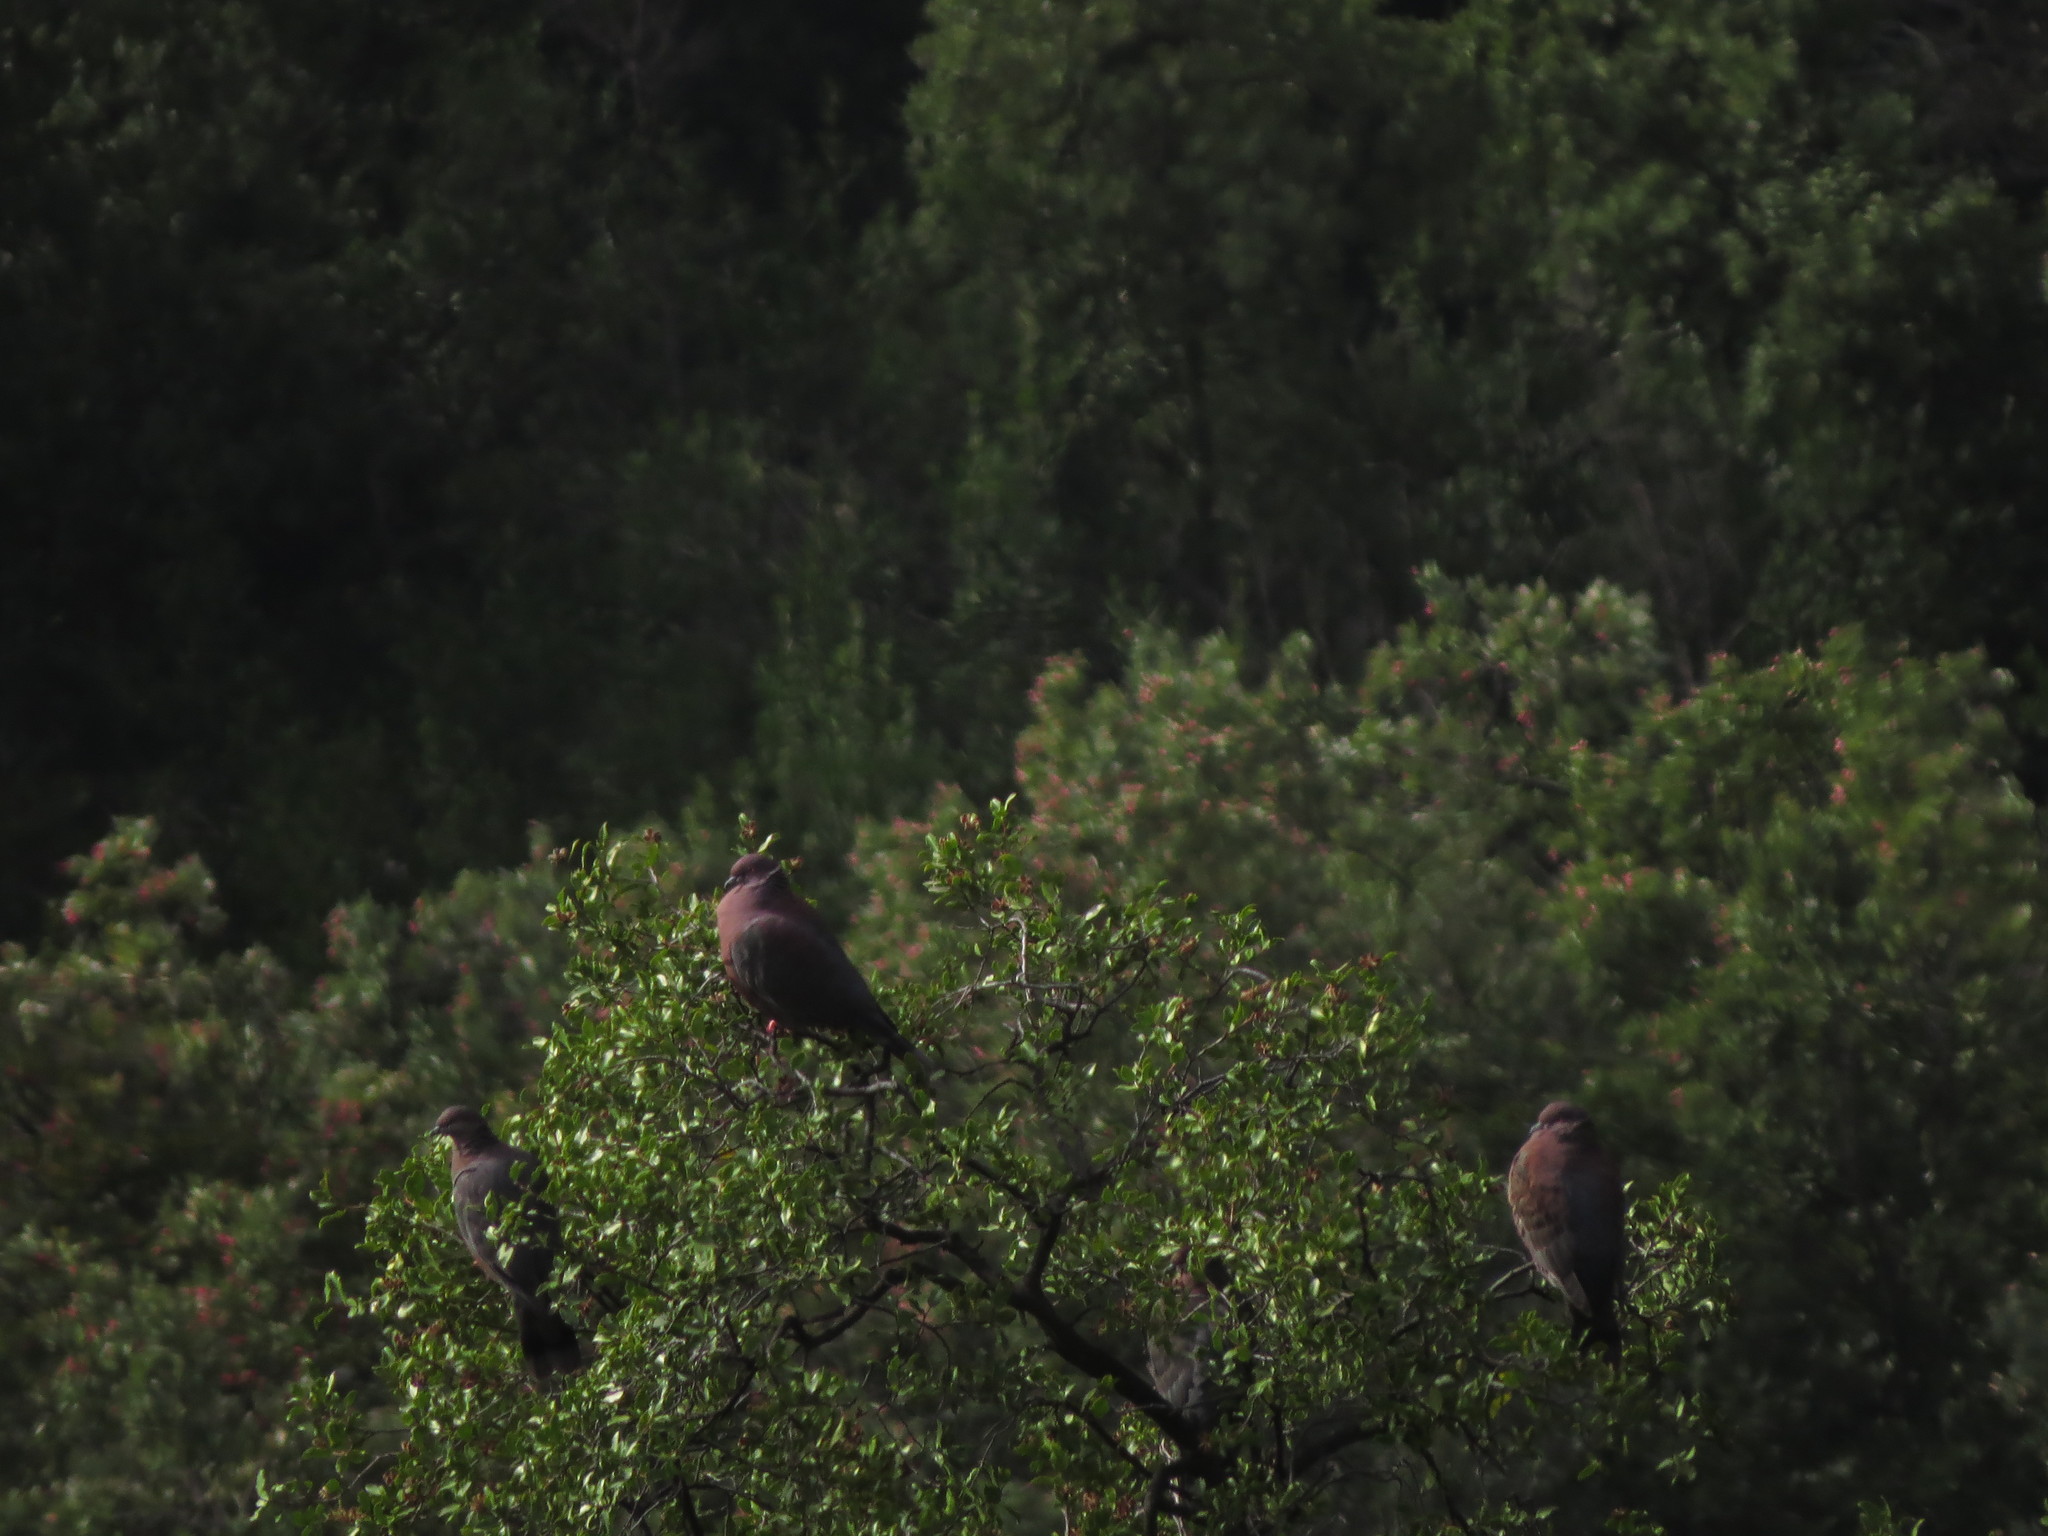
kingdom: Animalia
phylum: Chordata
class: Aves
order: Columbiformes
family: Columbidae
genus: Patagioenas
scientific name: Patagioenas araucana
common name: Chilean pigeon
